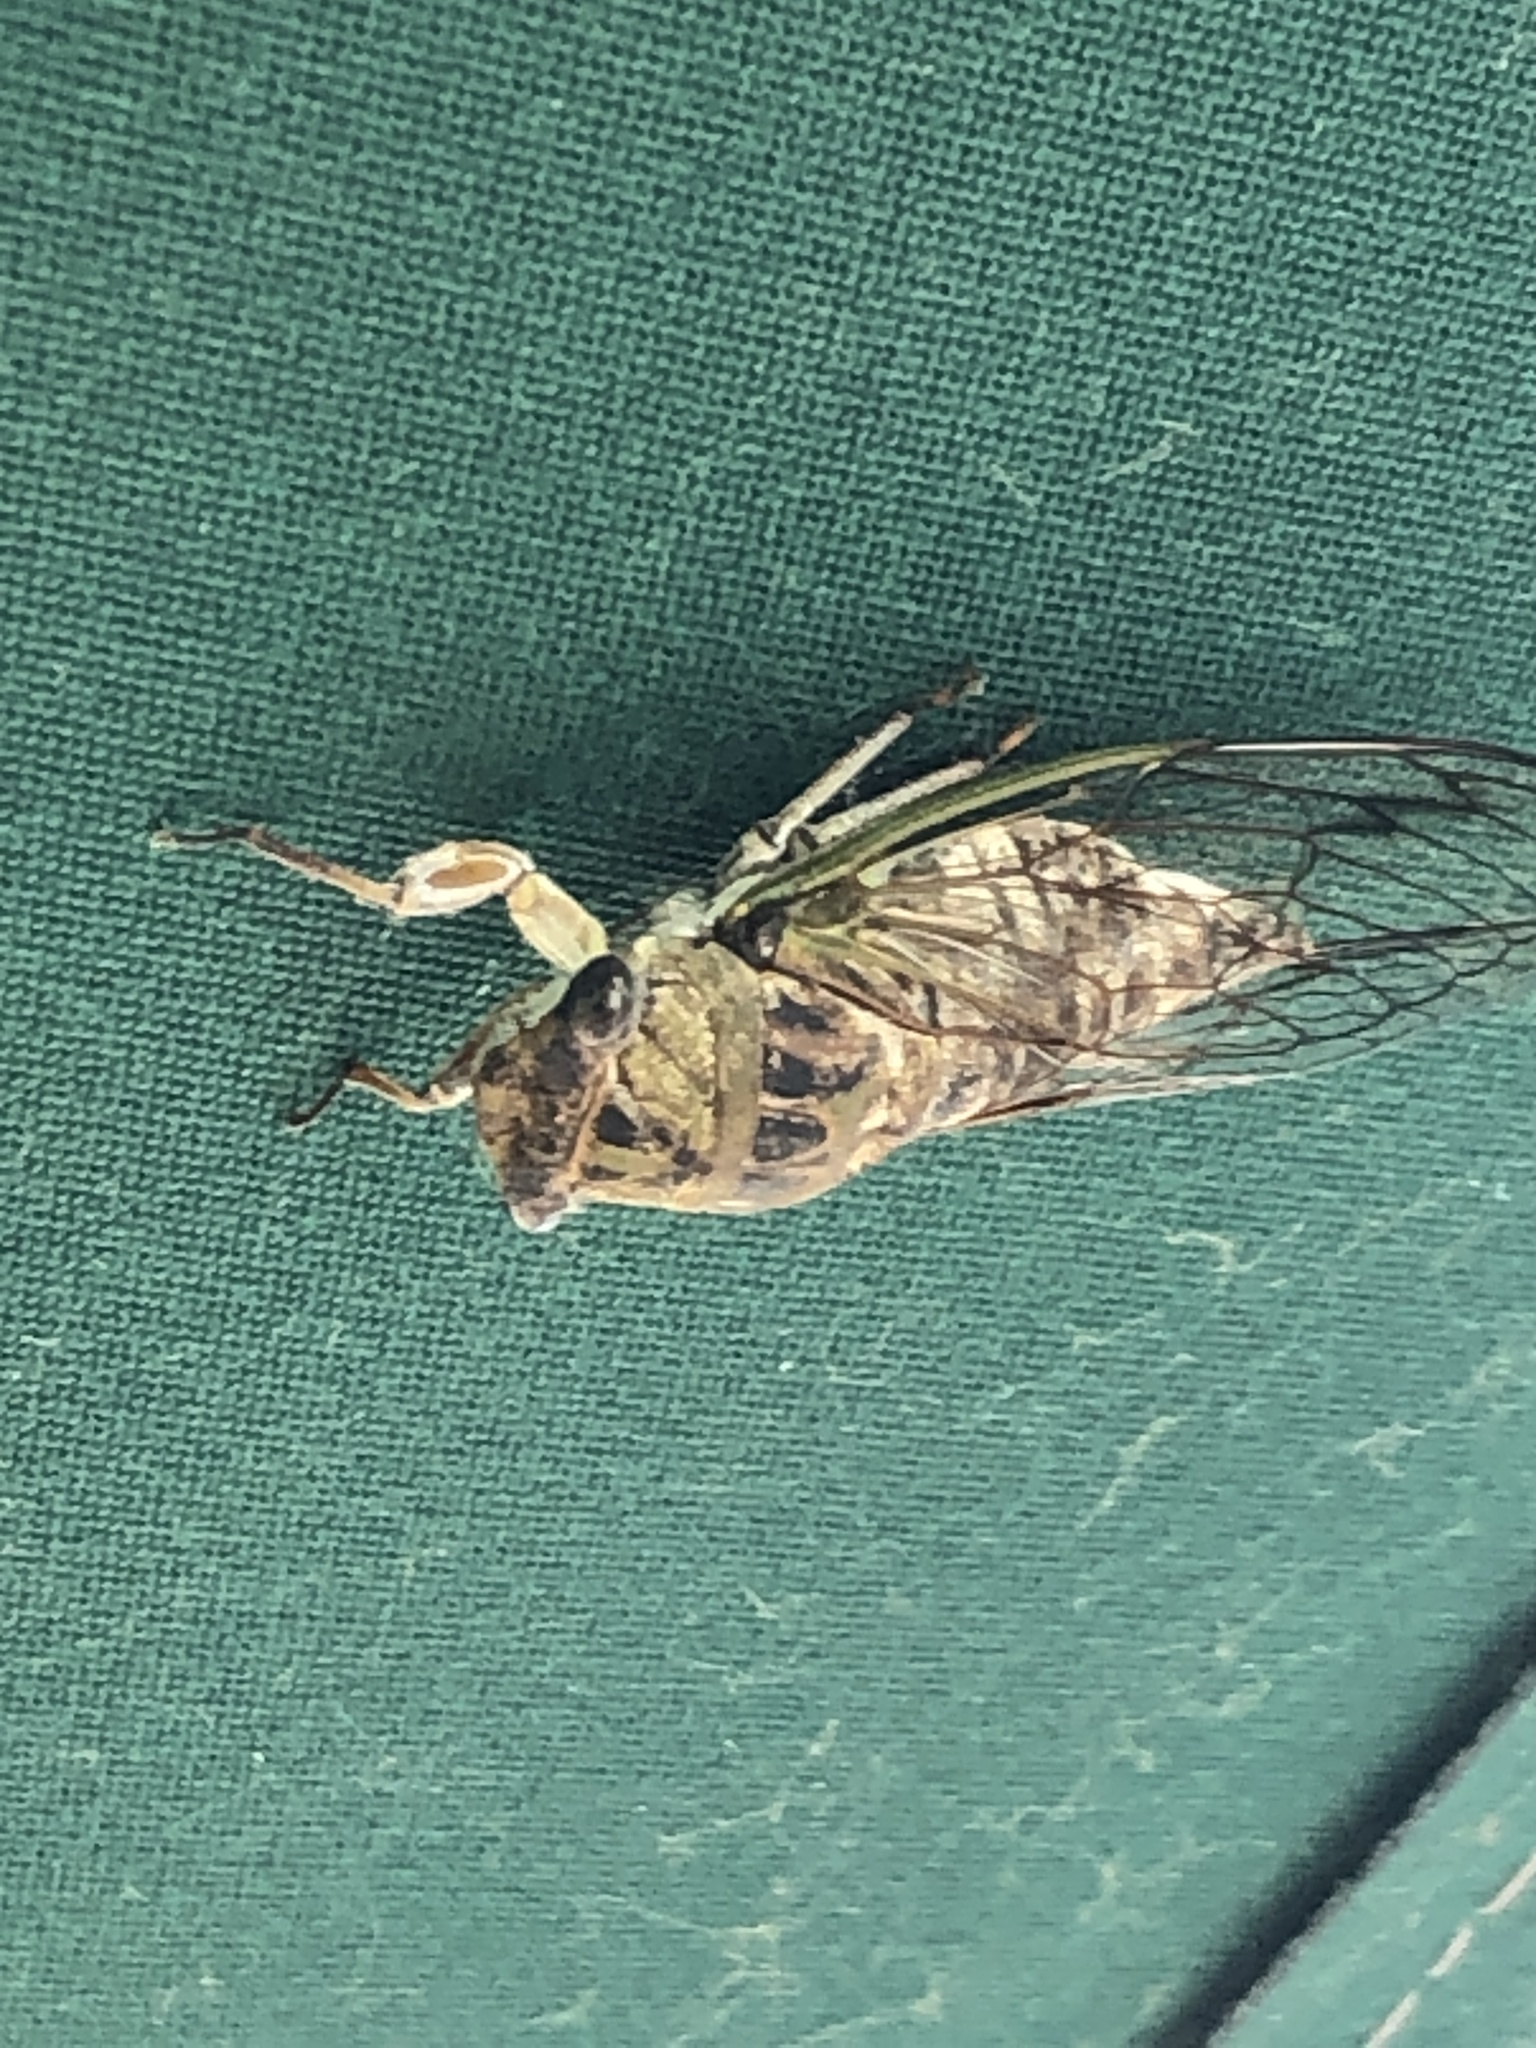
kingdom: Animalia
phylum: Arthropoda
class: Insecta
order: Hemiptera
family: Cicadidae
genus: Neotibicen
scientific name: Neotibicen canicularis
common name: God-day cicada
